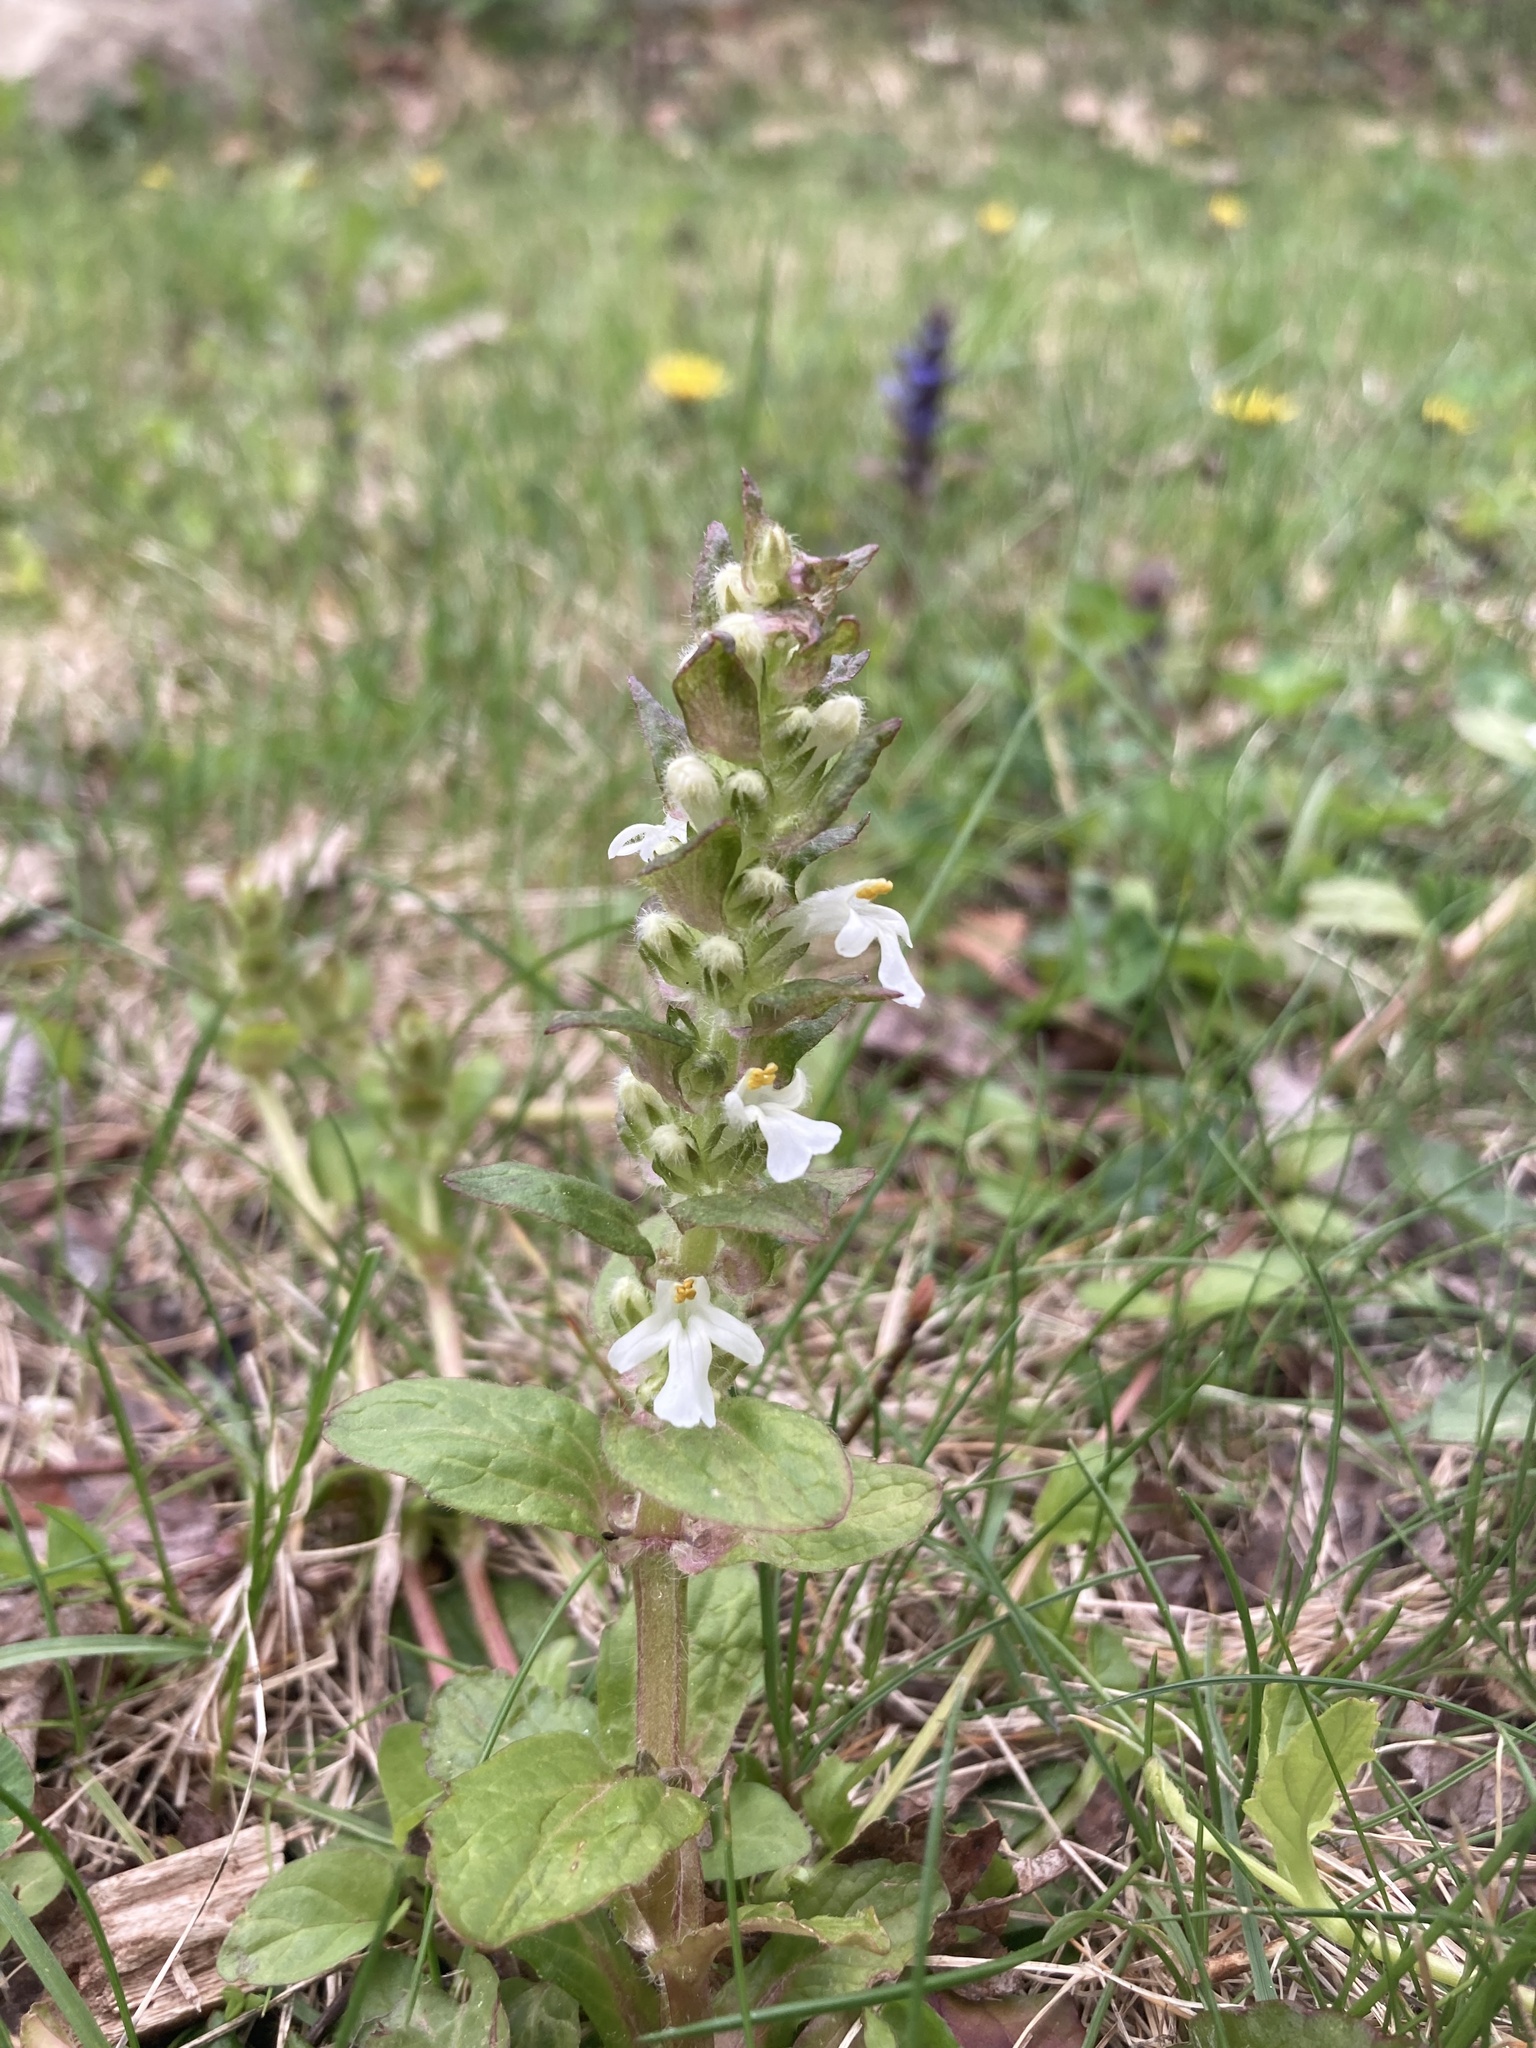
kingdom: Plantae
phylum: Tracheophyta
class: Magnoliopsida
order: Lamiales
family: Lamiaceae
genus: Ajuga
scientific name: Ajuga reptans
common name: Bugle
